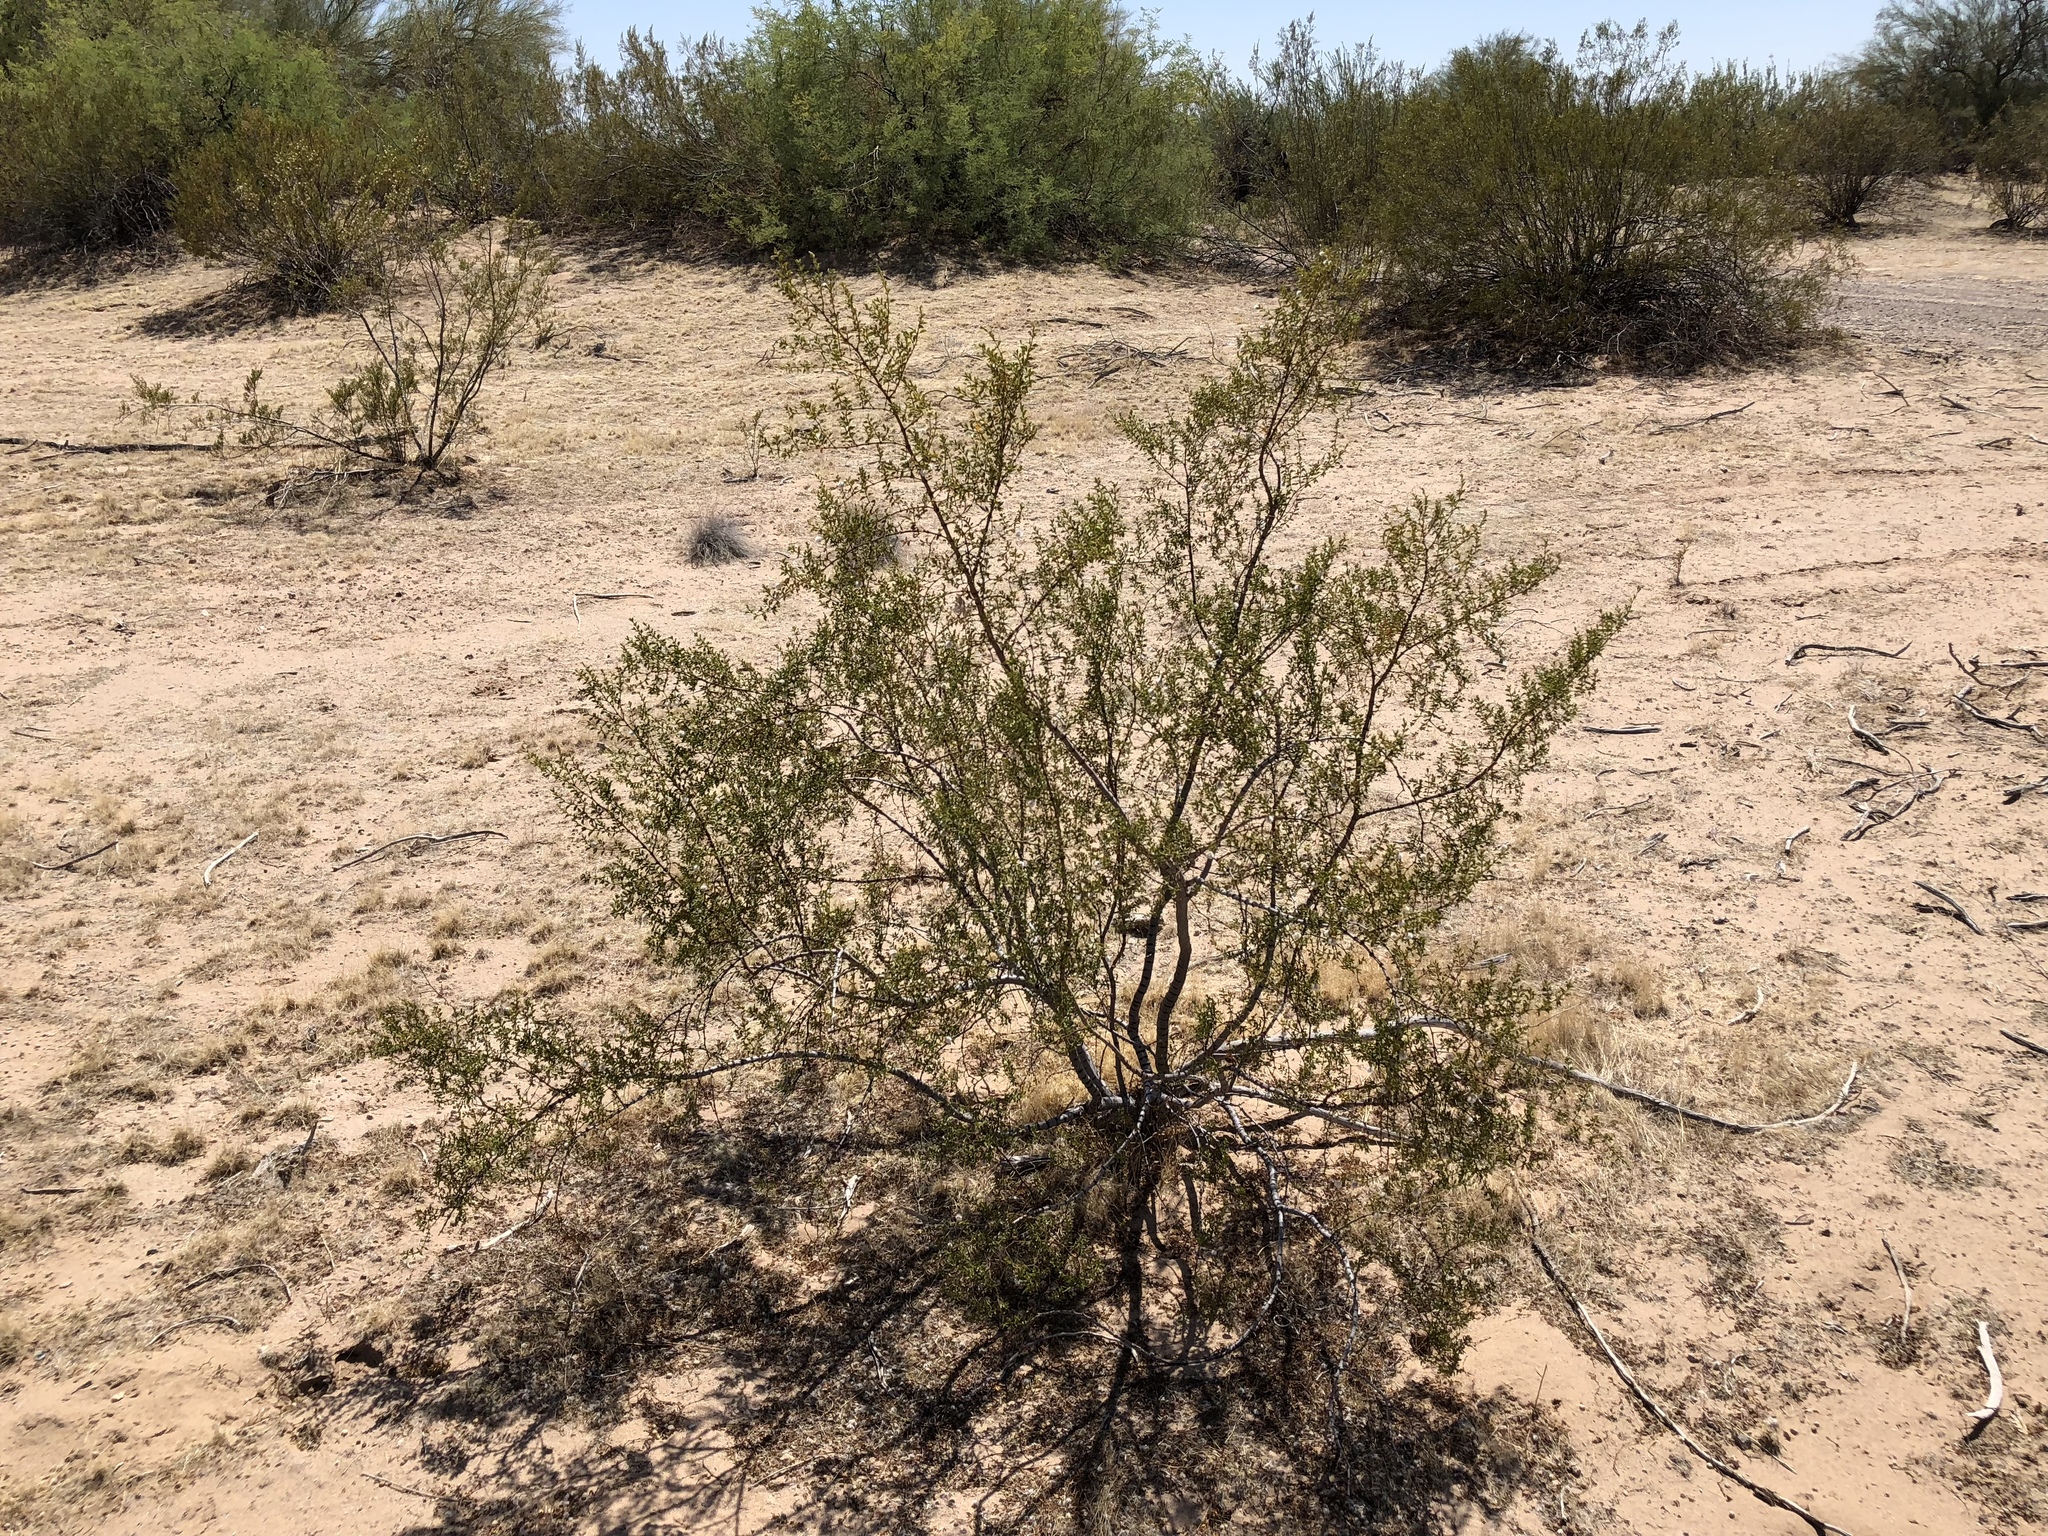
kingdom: Plantae
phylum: Tracheophyta
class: Magnoliopsida
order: Zygophyllales
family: Zygophyllaceae
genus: Larrea
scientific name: Larrea tridentata
